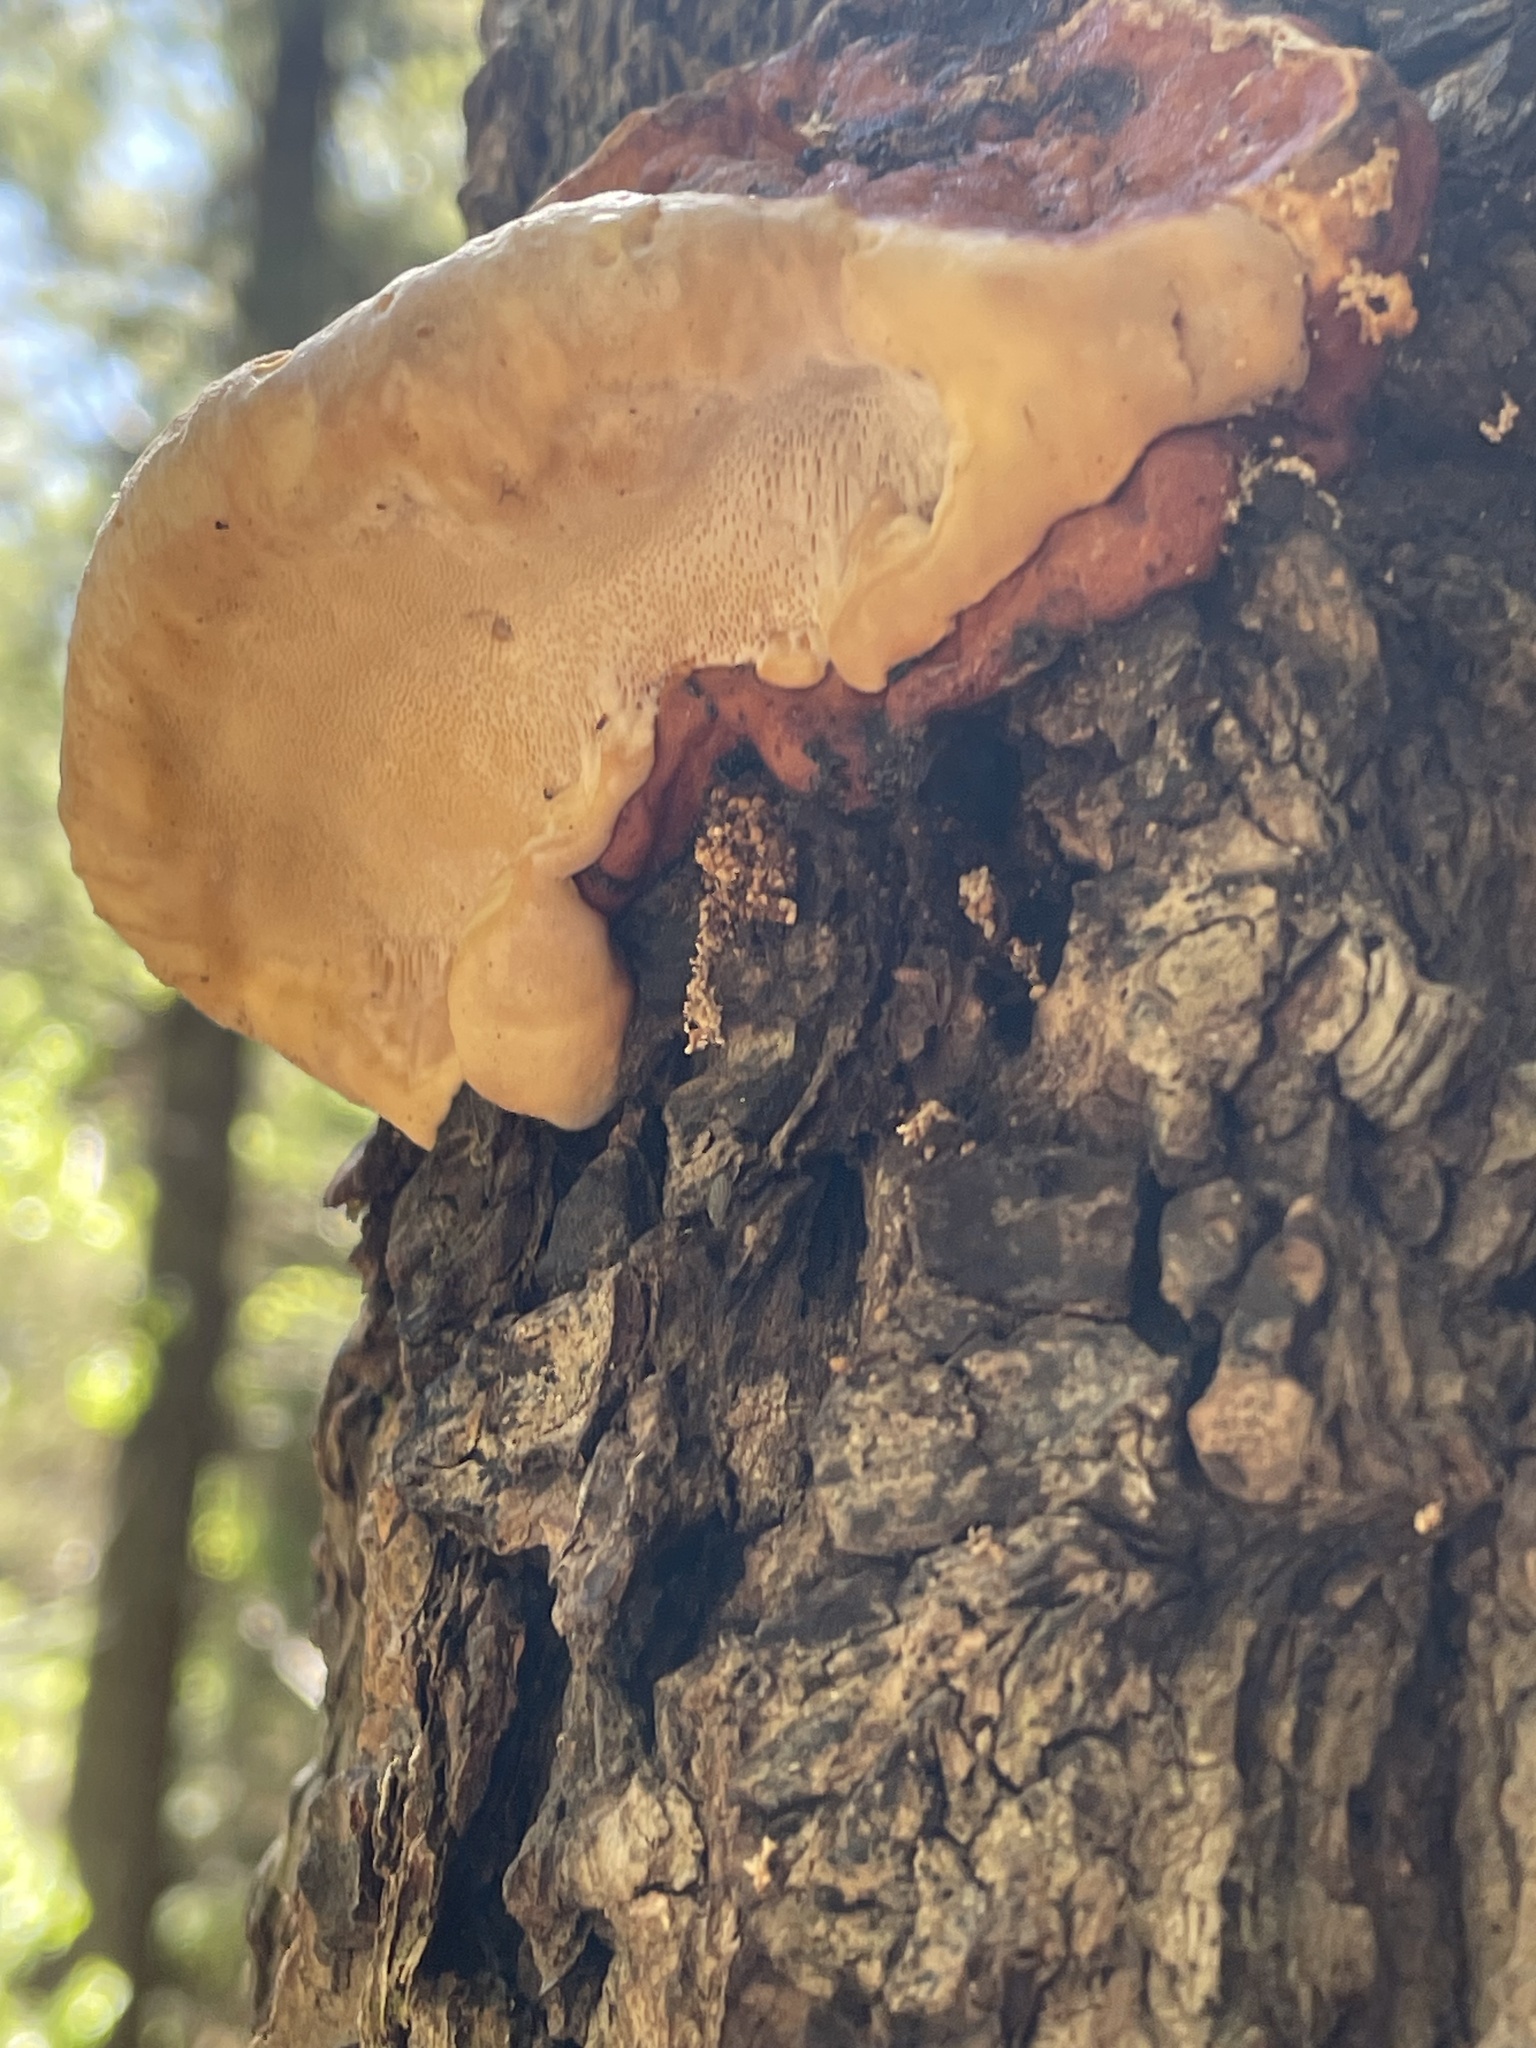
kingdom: Fungi
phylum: Basidiomycota
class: Agaricomycetes
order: Polyporales
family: Fomitopsidaceae
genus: Fomitopsis
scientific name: Fomitopsis schrenkii
